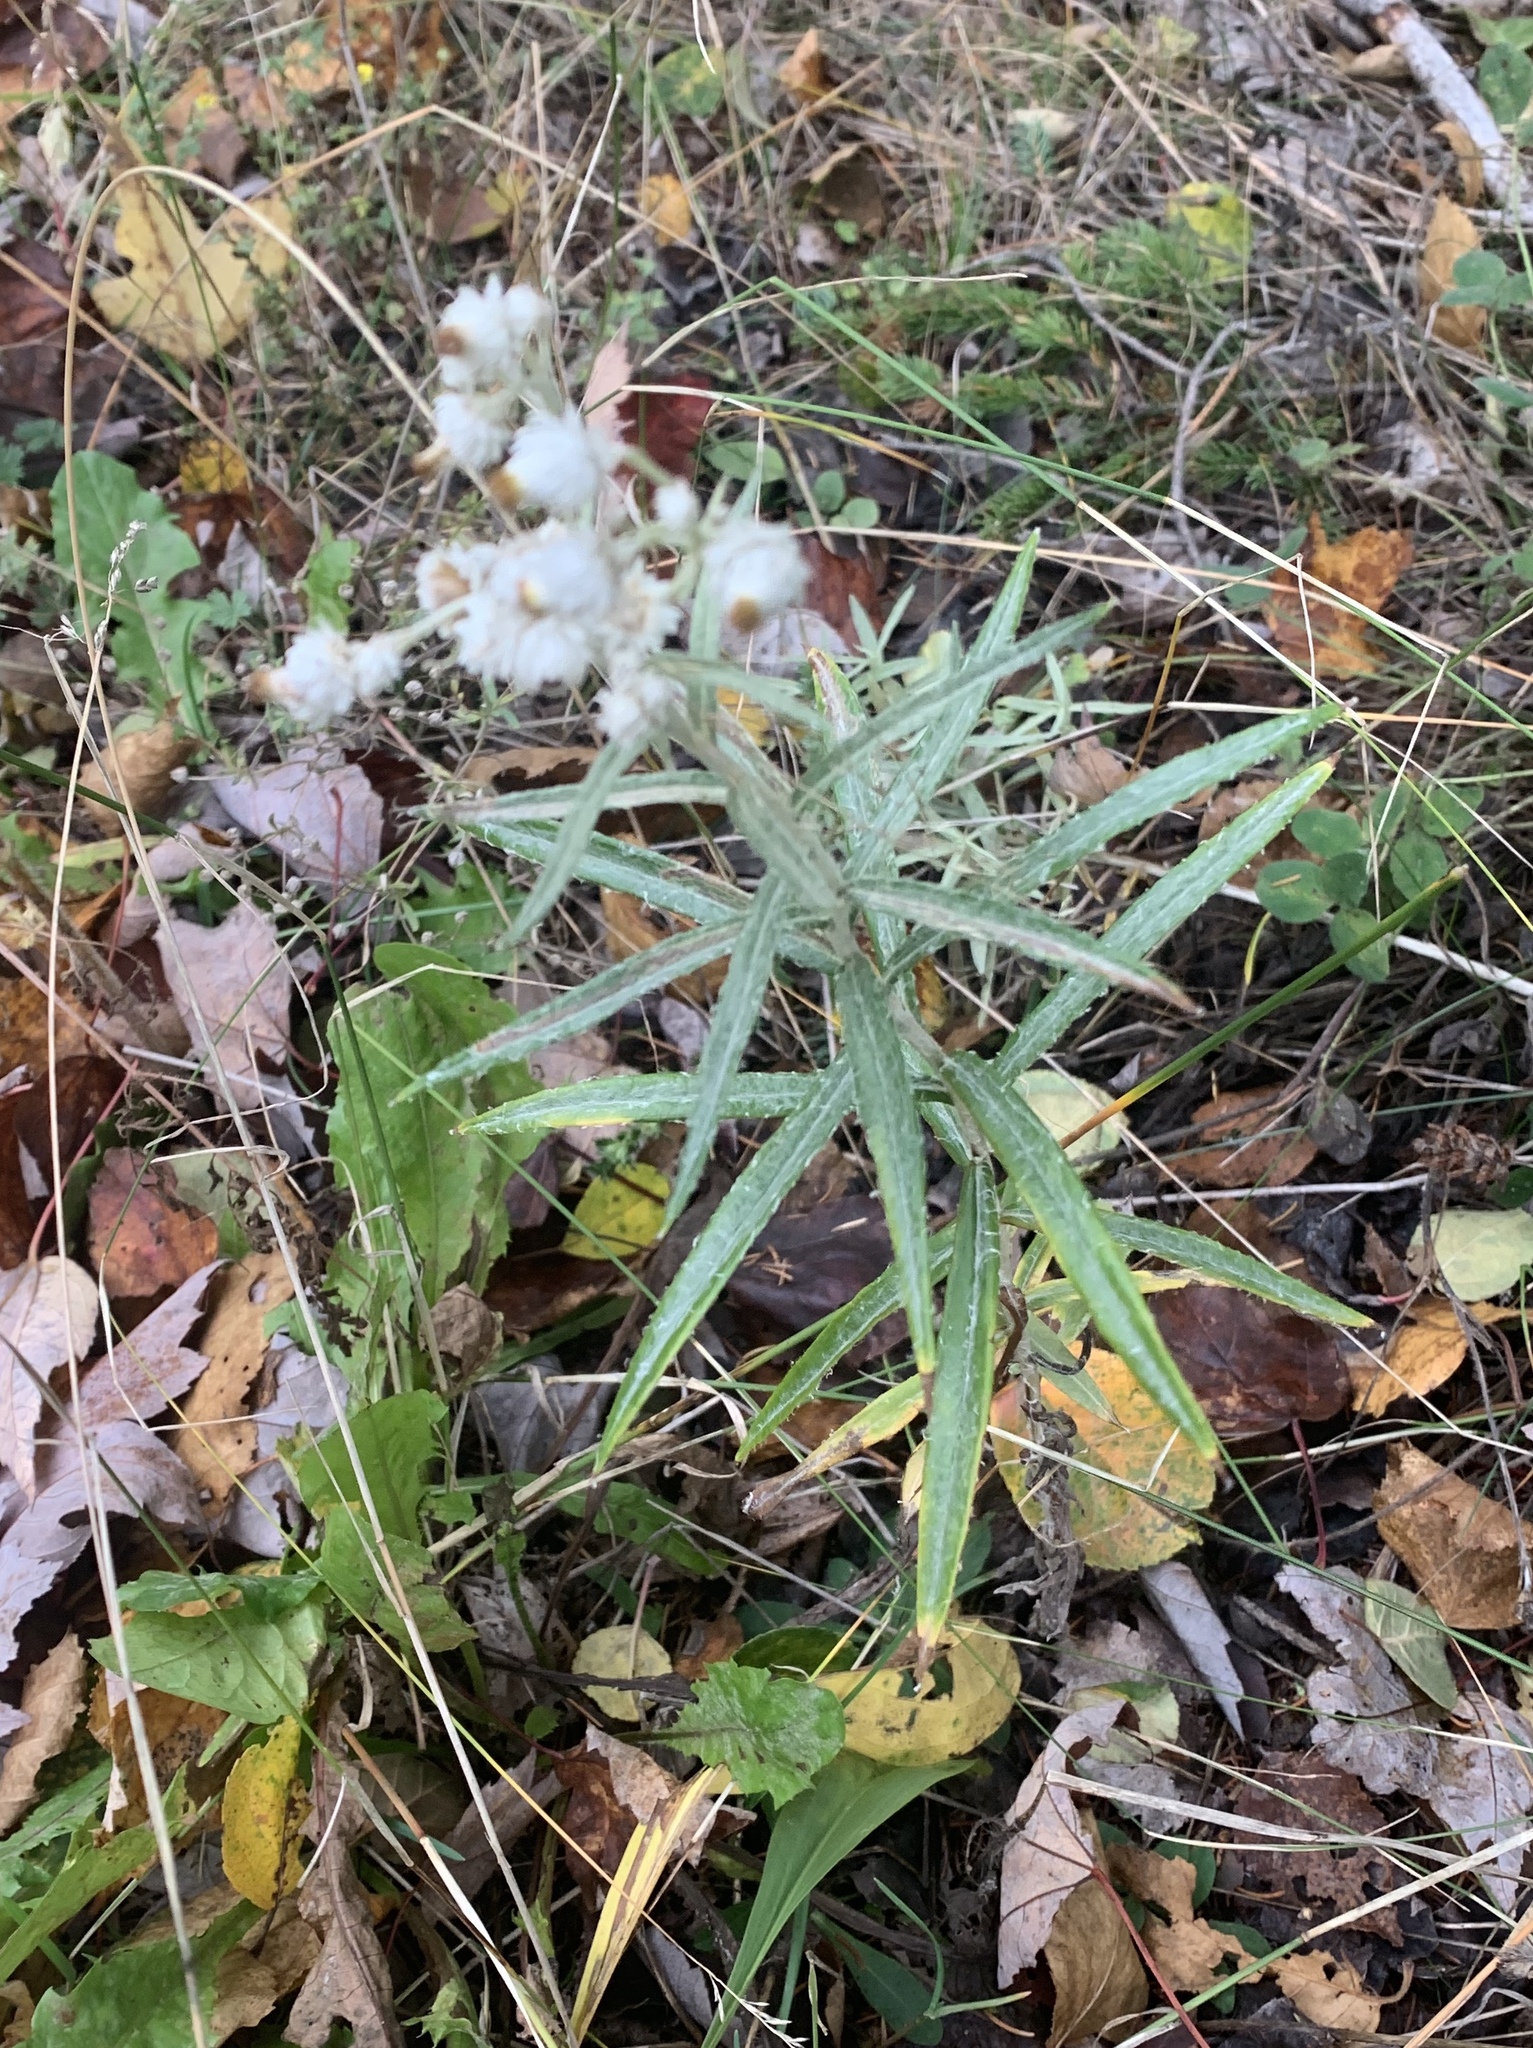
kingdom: Plantae
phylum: Tracheophyta
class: Magnoliopsida
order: Asterales
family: Asteraceae
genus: Anaphalis
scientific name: Anaphalis margaritacea
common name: Pearly everlasting
